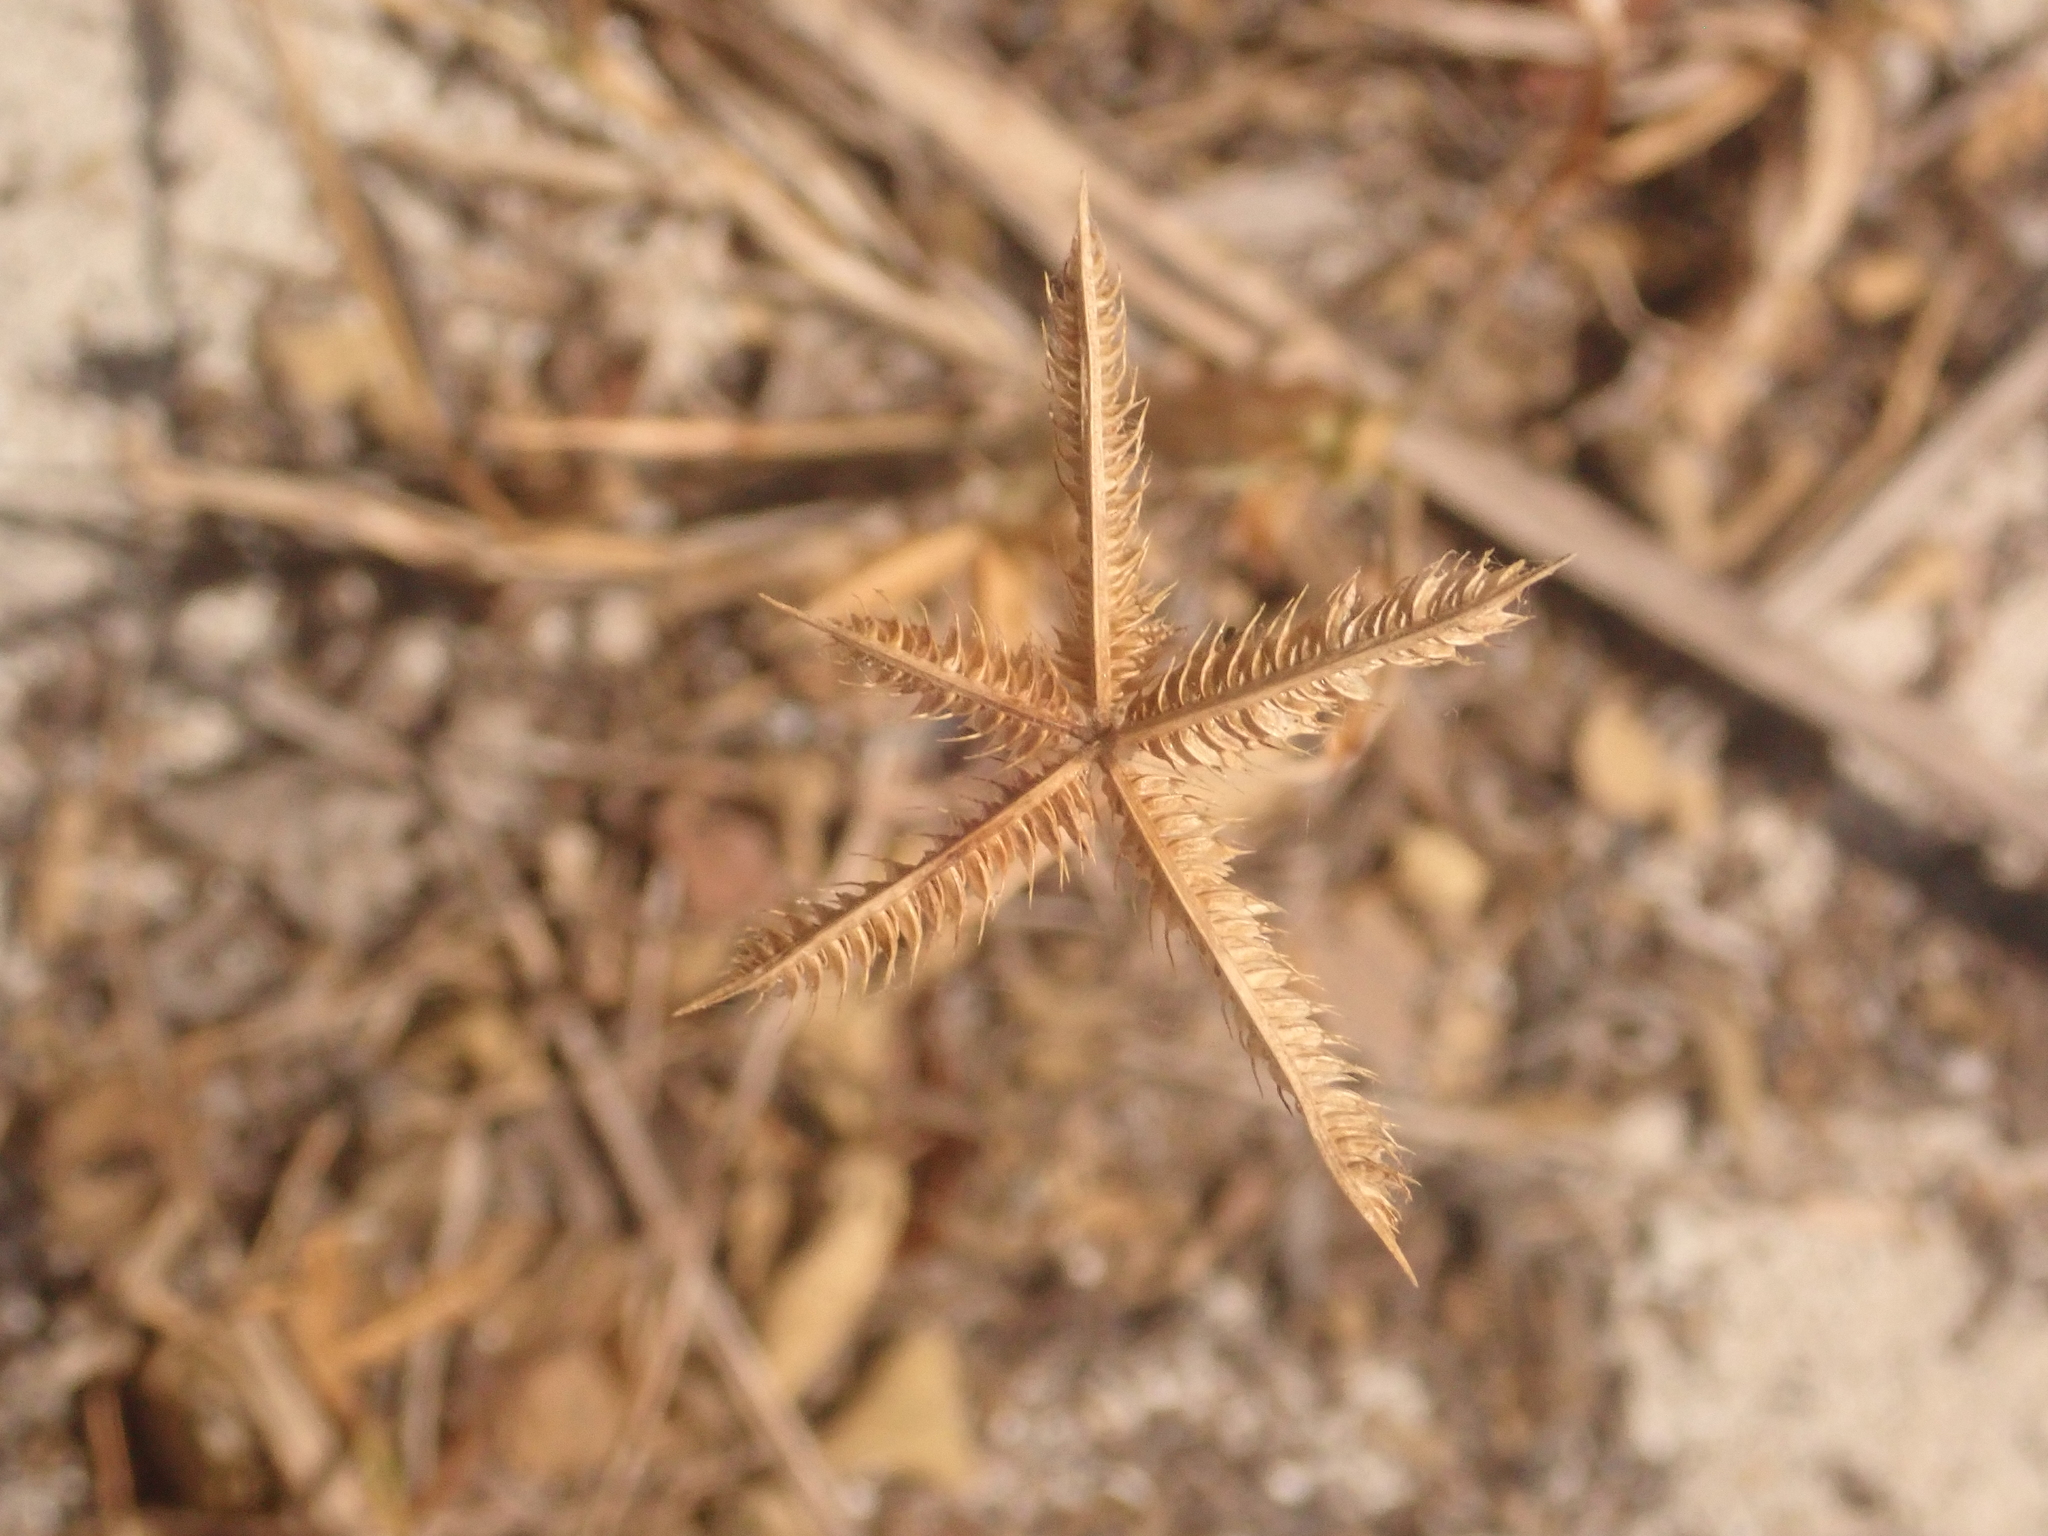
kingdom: Plantae
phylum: Tracheophyta
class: Liliopsida
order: Poales
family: Poaceae
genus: Dactyloctenium
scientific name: Dactyloctenium aegyptium
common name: Egyptian grass
